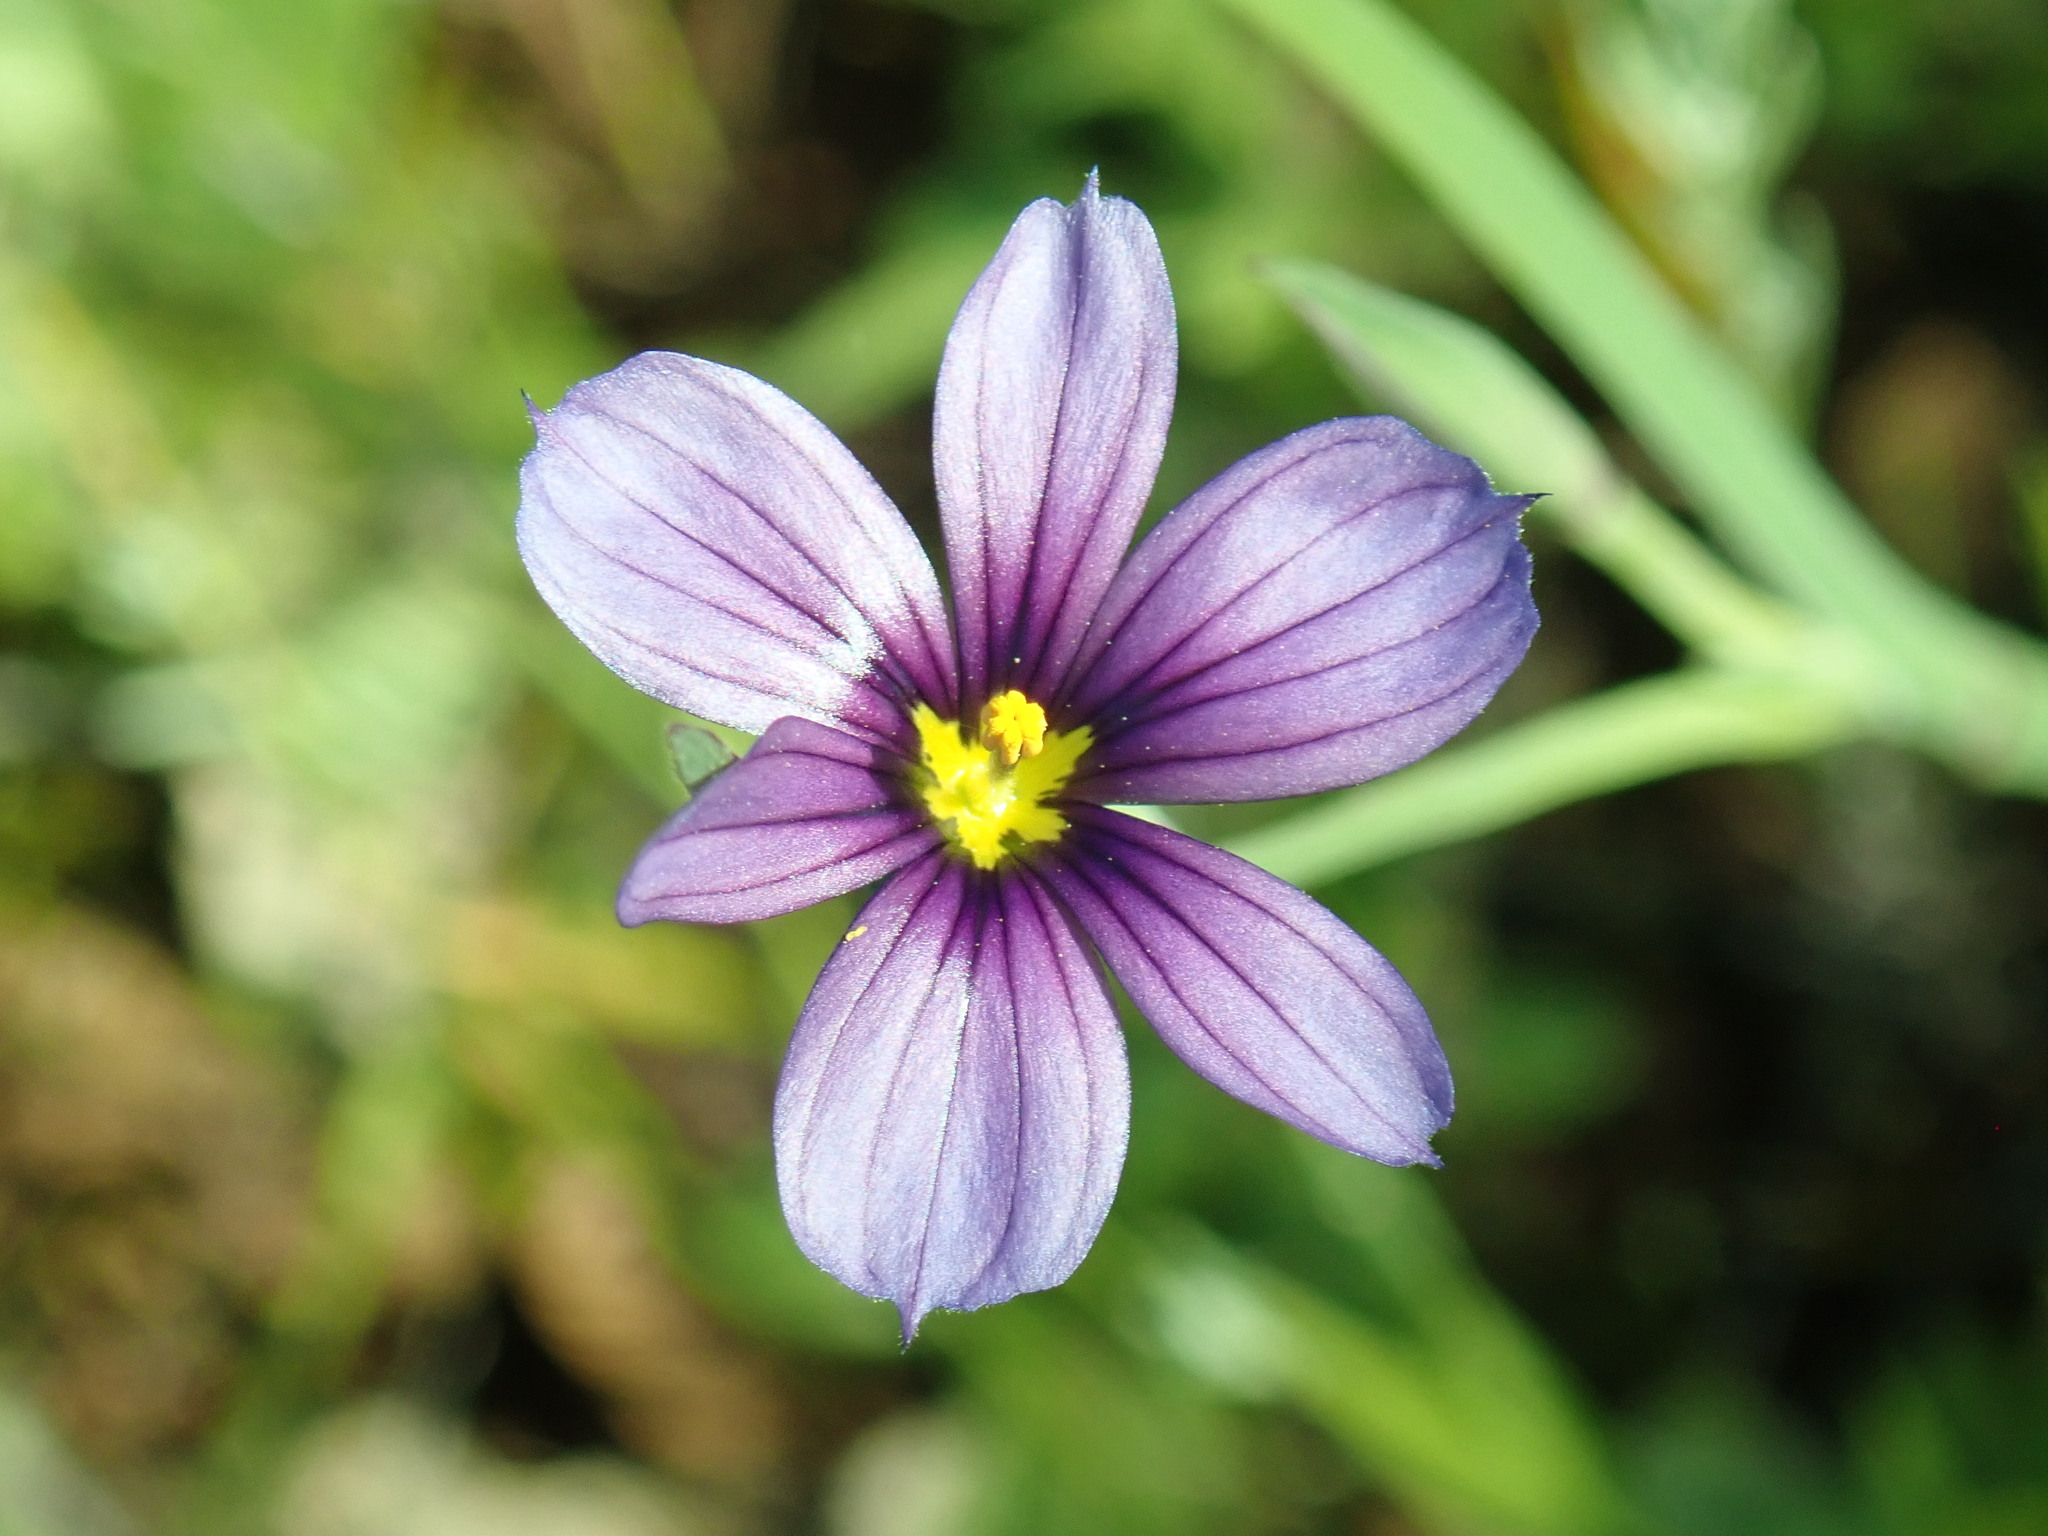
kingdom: Plantae
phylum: Tracheophyta
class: Liliopsida
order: Asparagales
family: Iridaceae
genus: Sisyrinchium
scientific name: Sisyrinchium bellum
